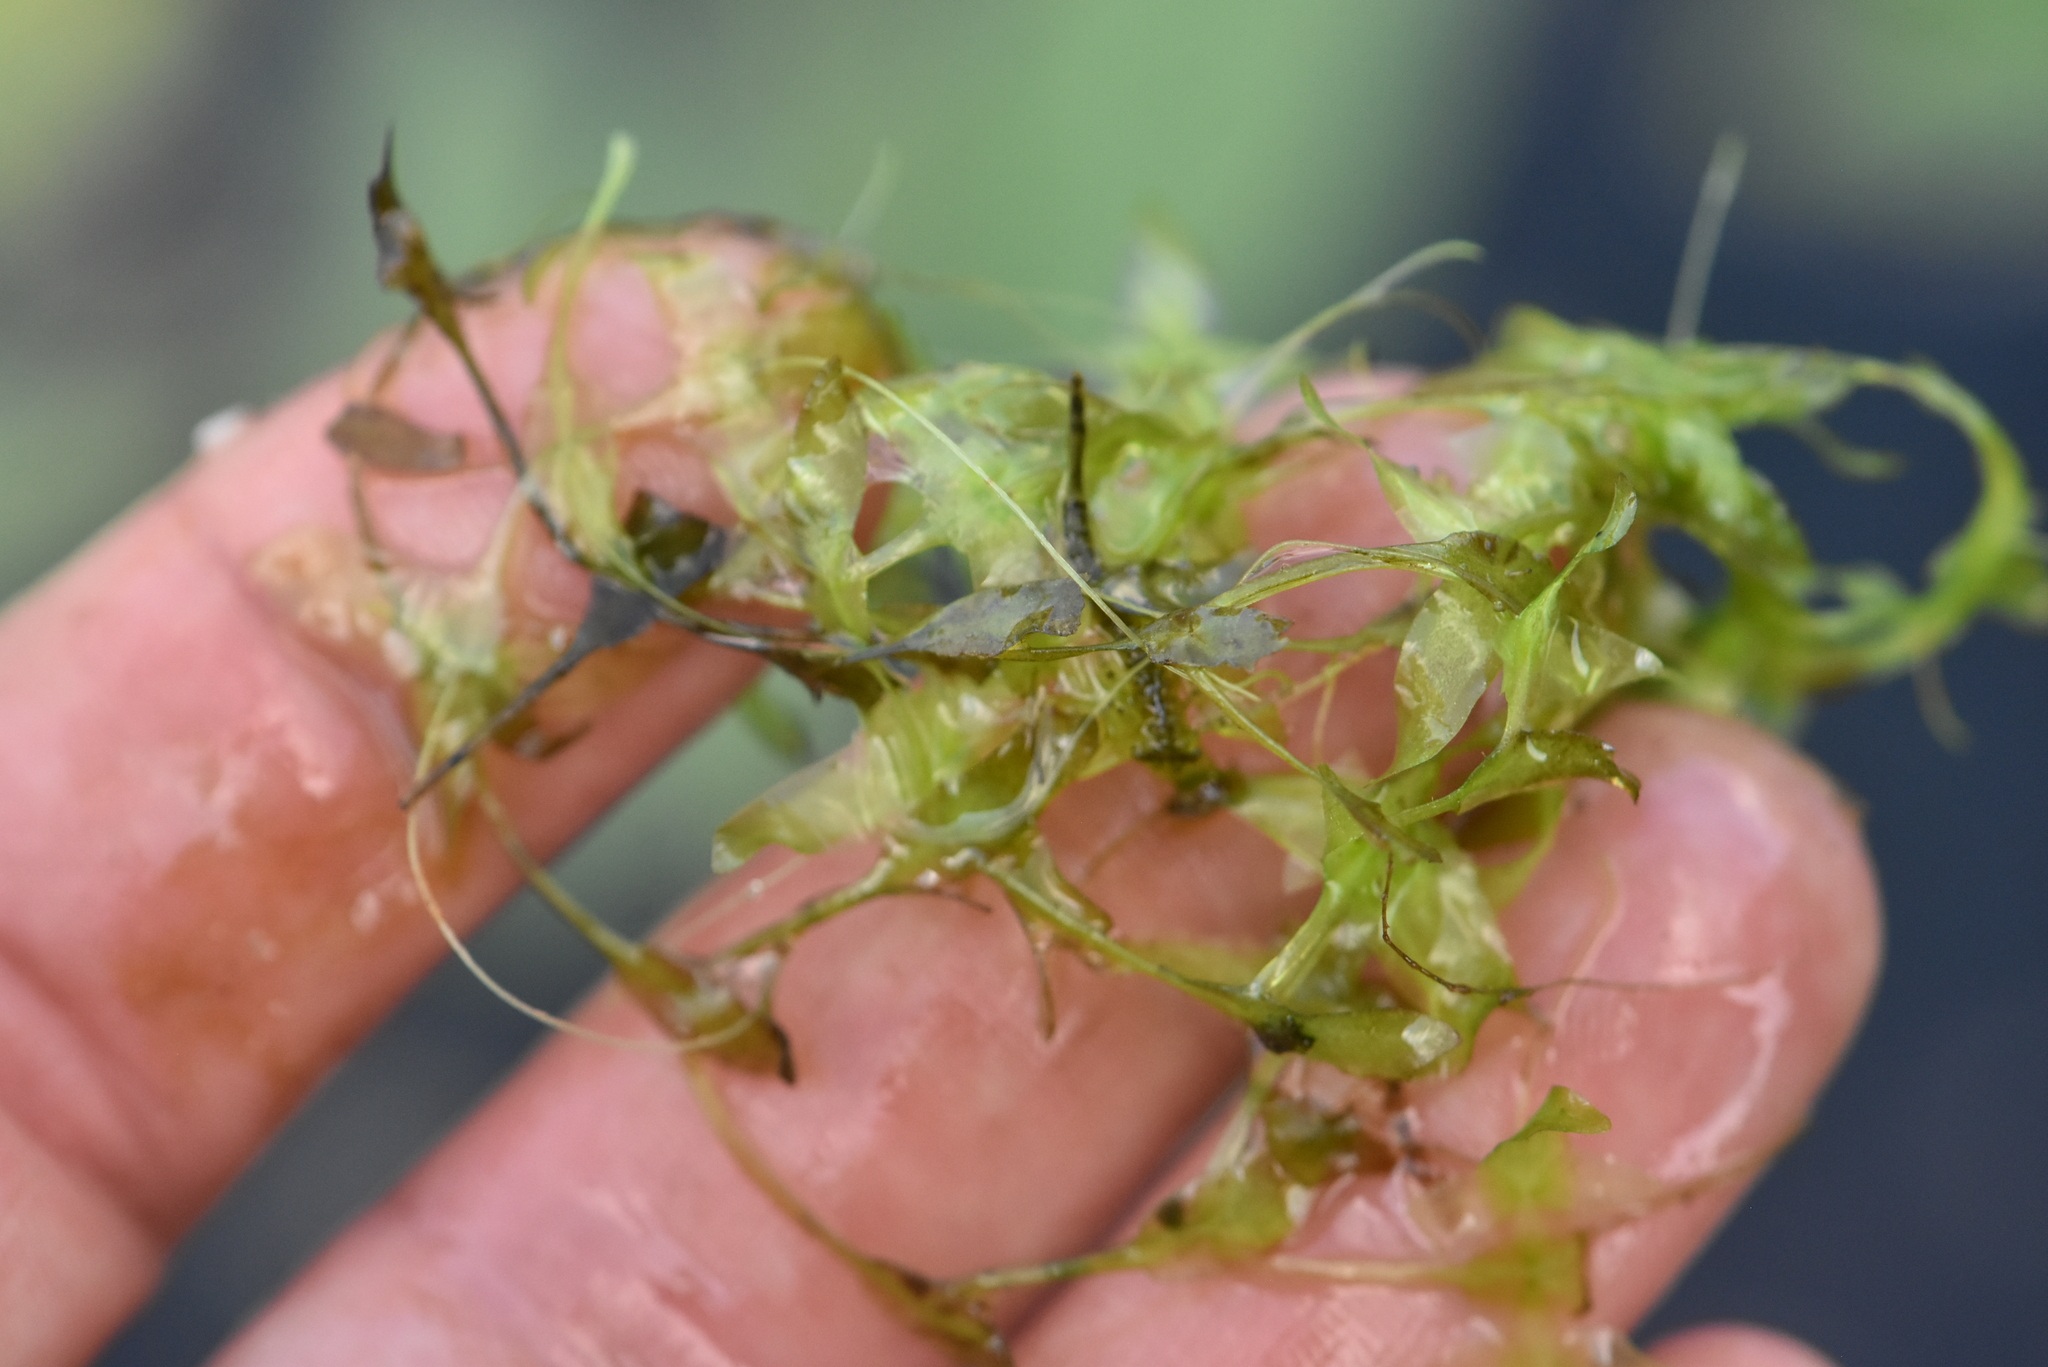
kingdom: Plantae
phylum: Tracheophyta
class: Liliopsida
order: Alismatales
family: Araceae
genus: Lemna
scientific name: Lemna trisulca
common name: Ivy-leaved duckweed
